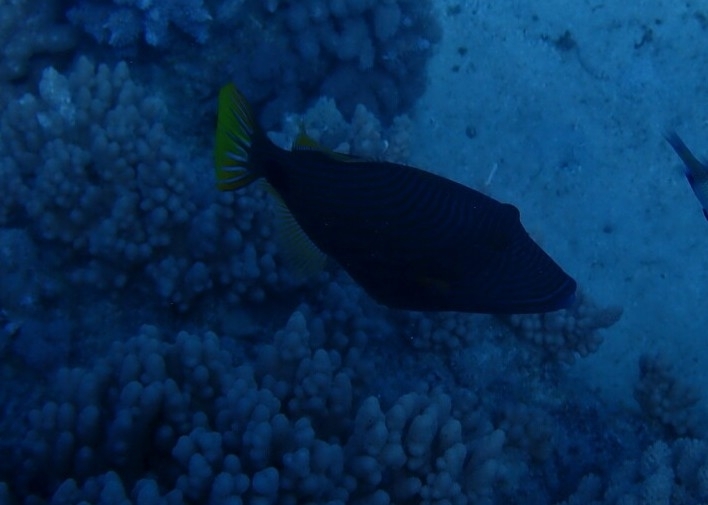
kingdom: Animalia
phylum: Chordata
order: Tetraodontiformes
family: Balistidae
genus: Balistapus
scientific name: Balistapus undulatus
